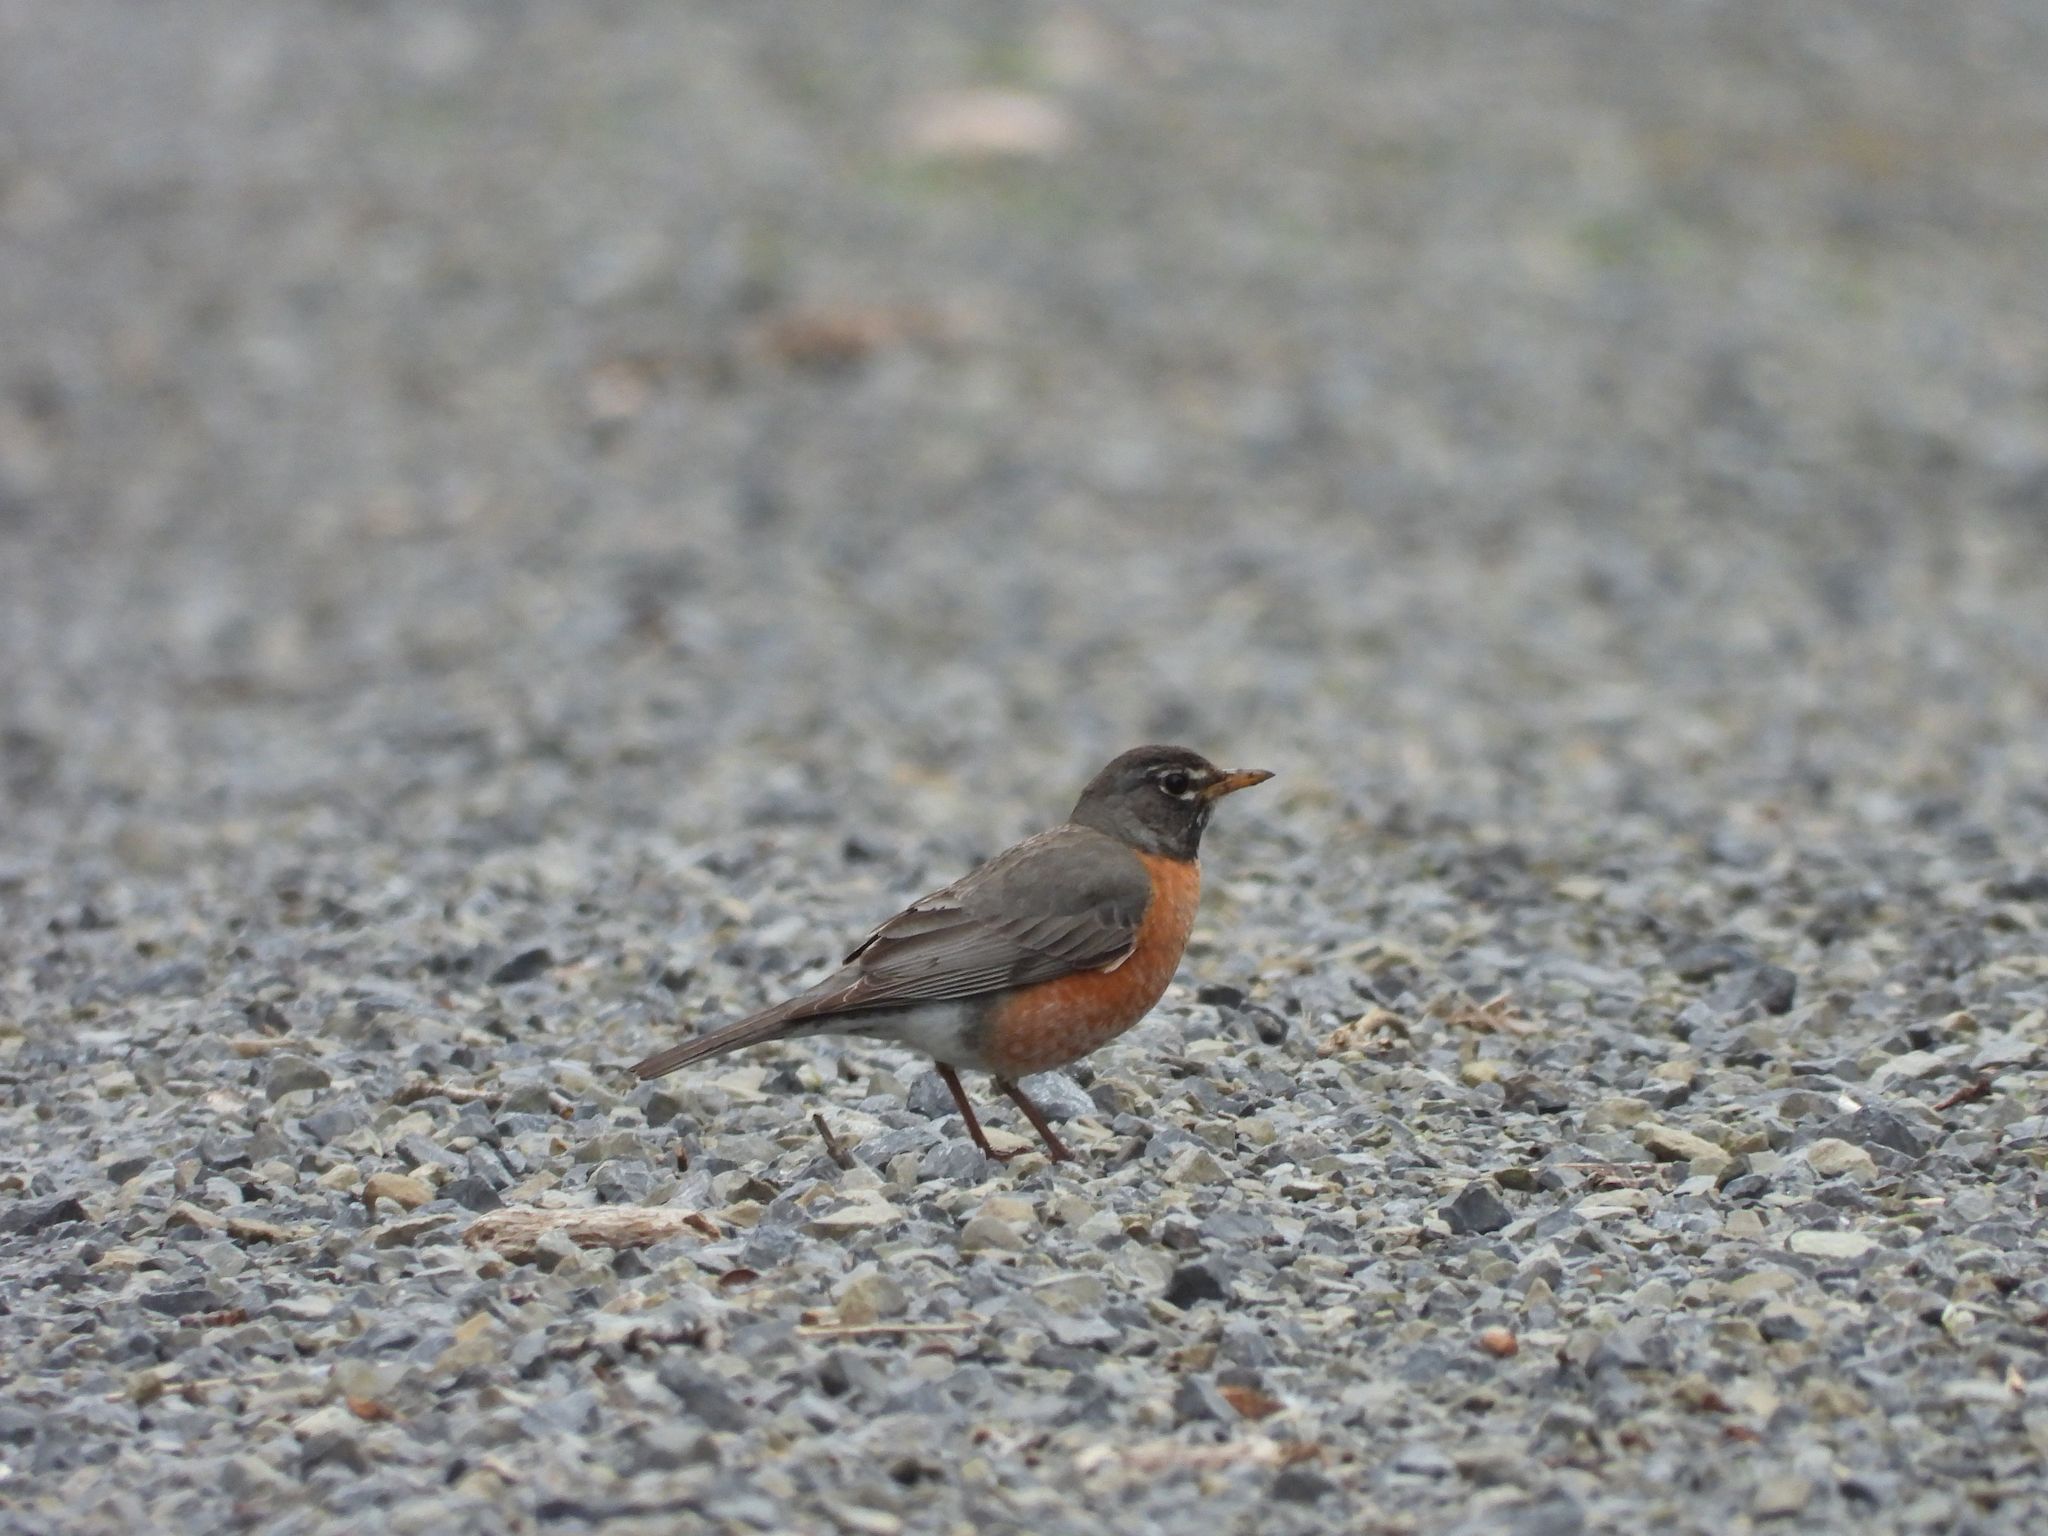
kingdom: Animalia
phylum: Chordata
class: Aves
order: Passeriformes
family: Turdidae
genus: Turdus
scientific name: Turdus migratorius
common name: American robin
